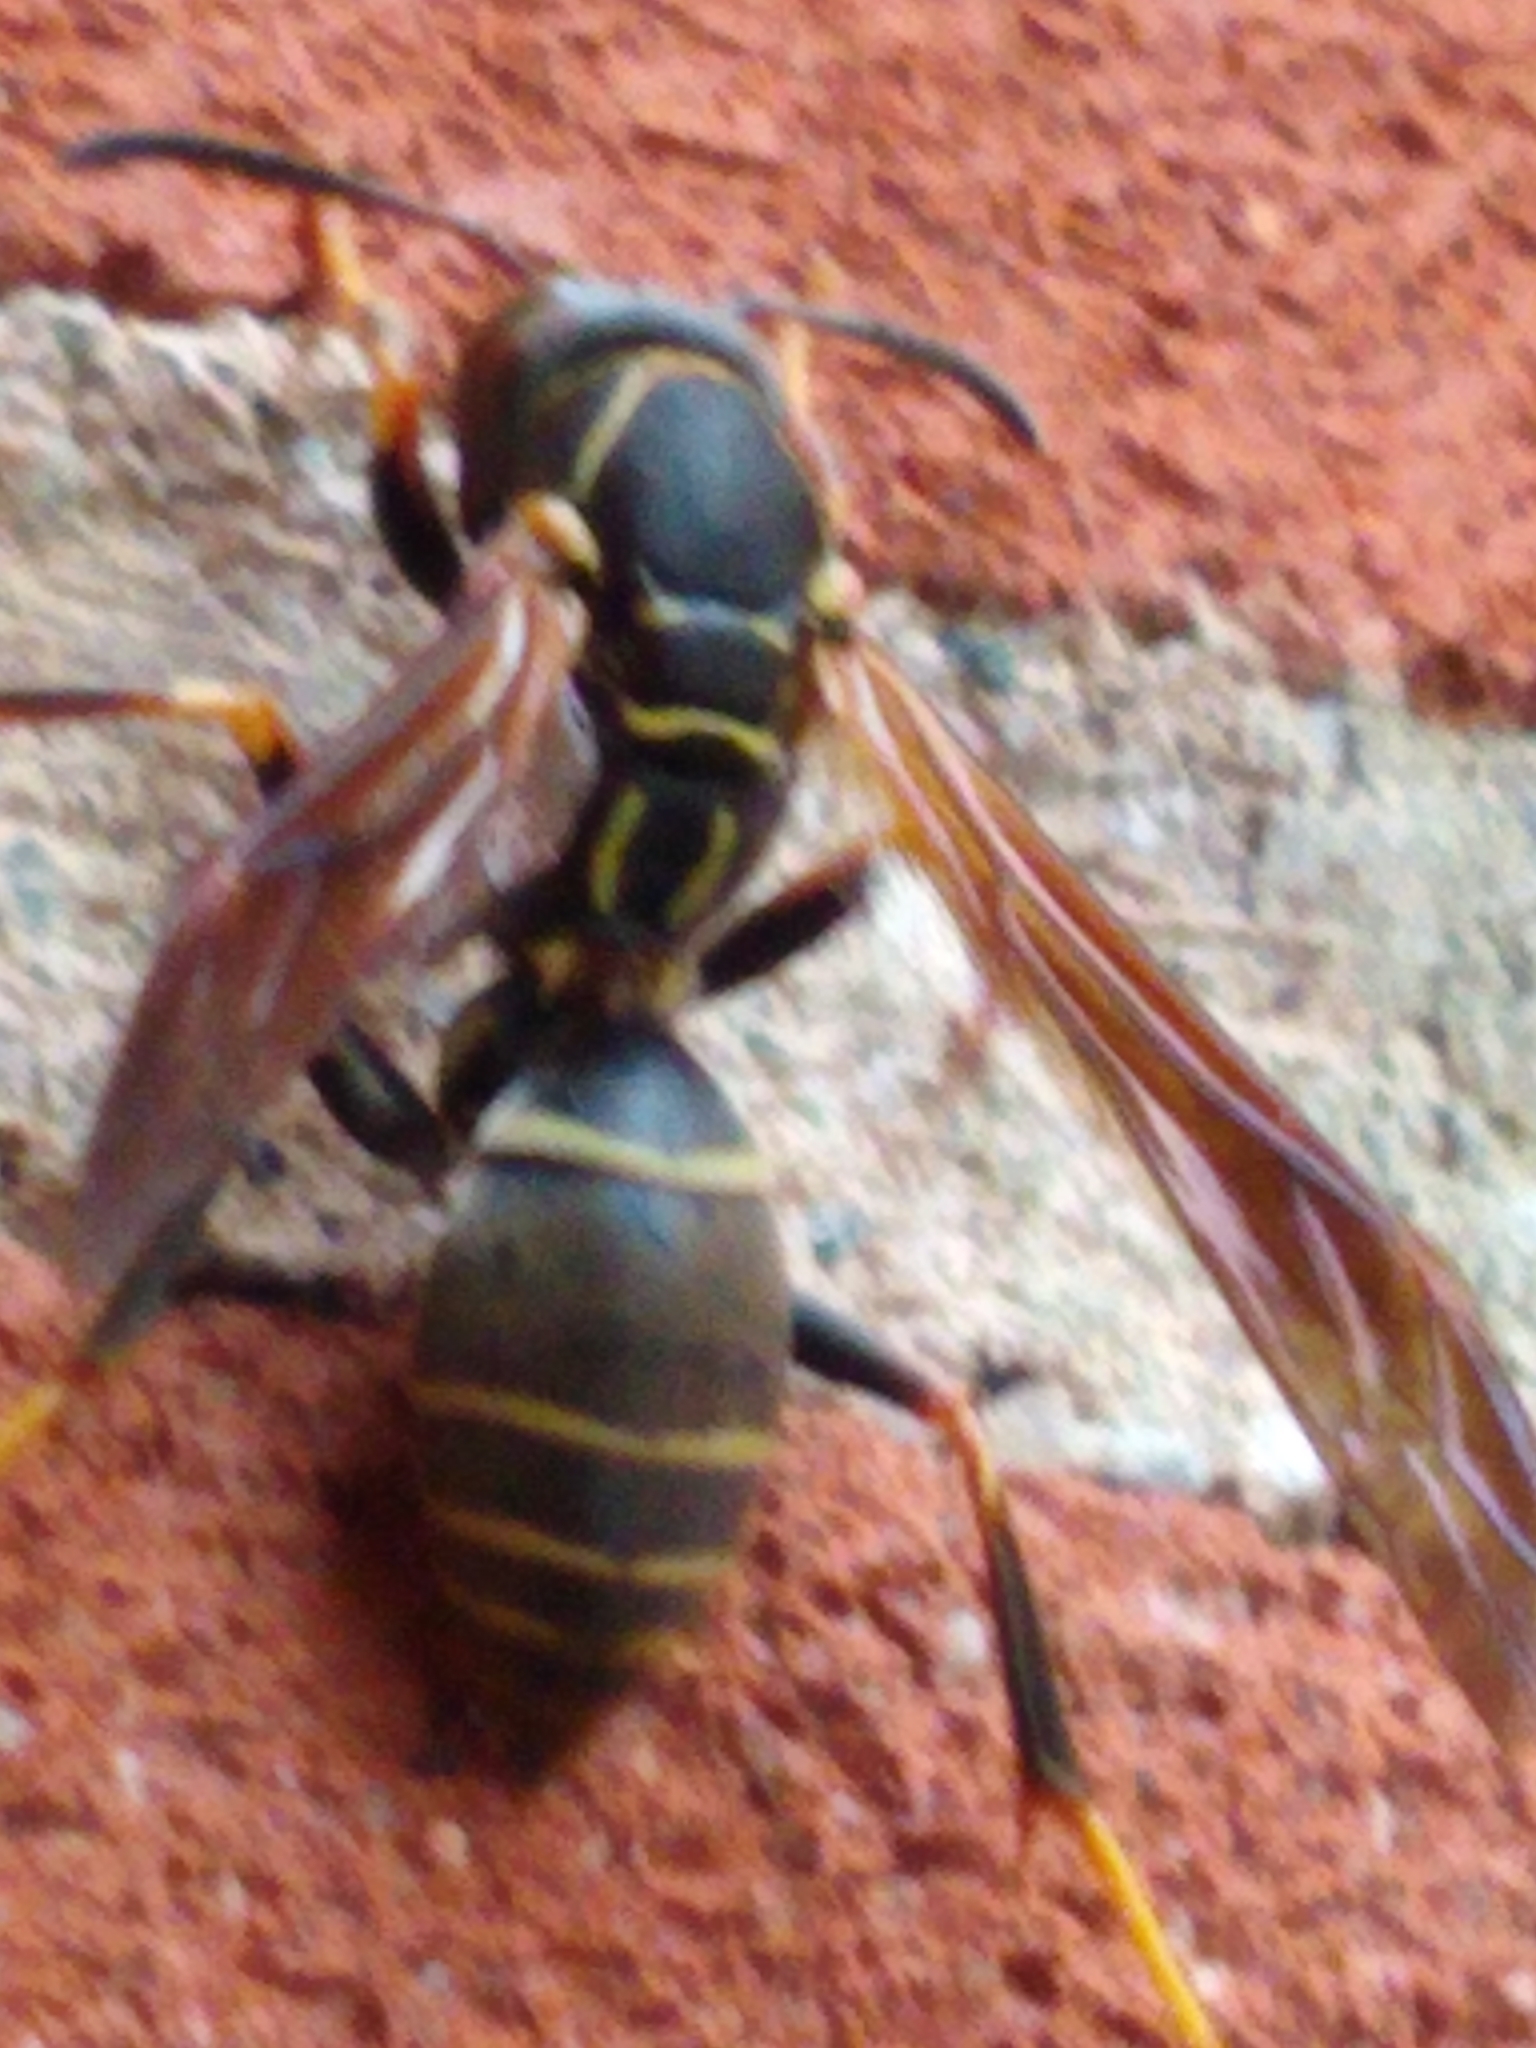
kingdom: Animalia
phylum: Arthropoda
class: Insecta
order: Hymenoptera
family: Eumenidae
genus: Polistes
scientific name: Polistes fuscatus
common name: Dark paper wasp
